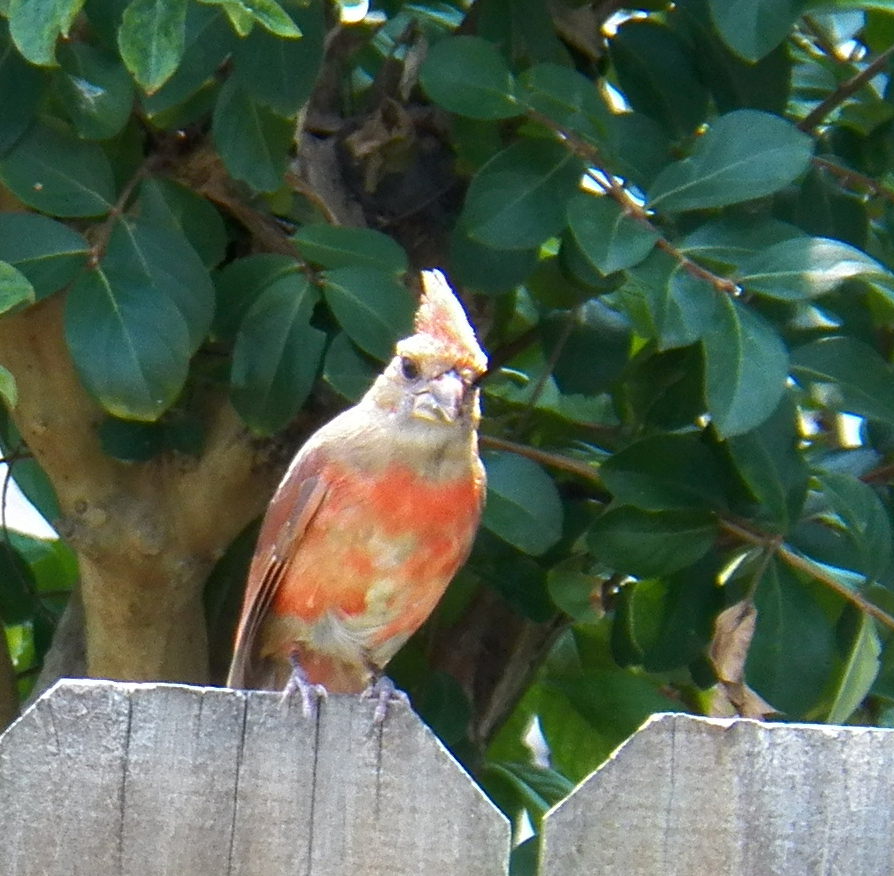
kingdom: Animalia
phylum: Chordata
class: Aves
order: Passeriformes
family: Cardinalidae
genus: Cardinalis
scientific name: Cardinalis cardinalis
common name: Northern cardinal
